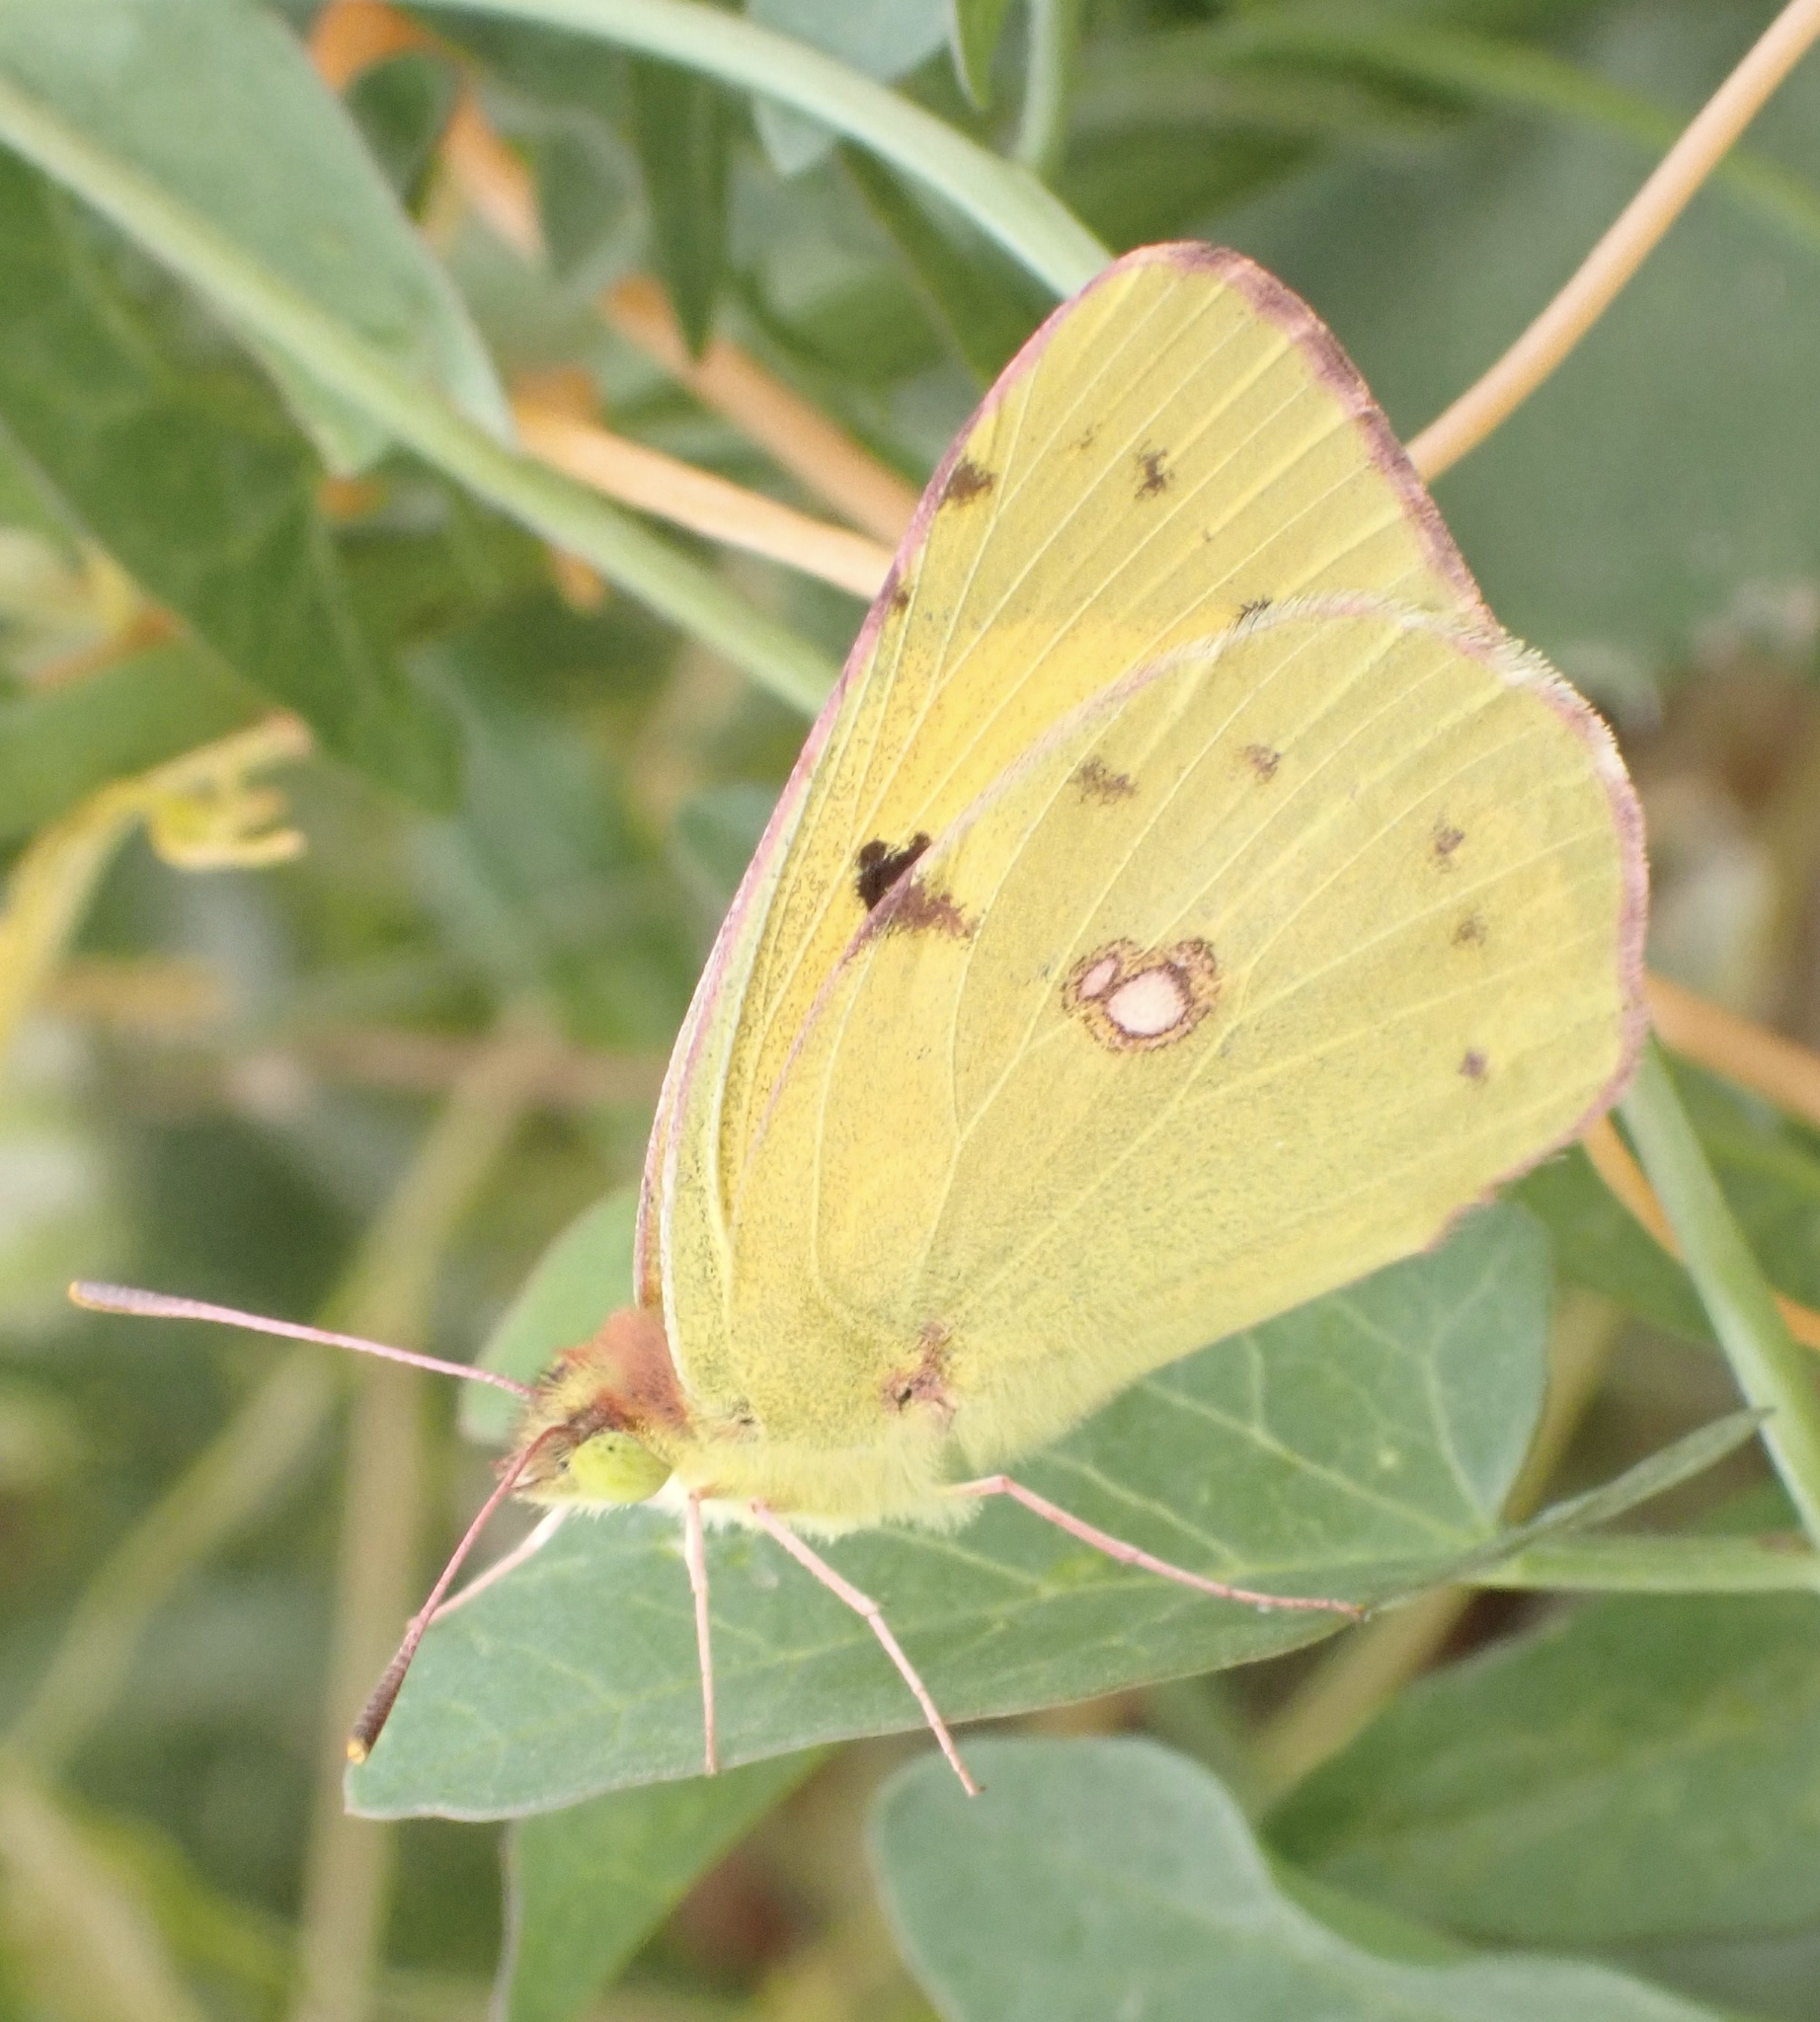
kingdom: Animalia
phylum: Arthropoda
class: Insecta
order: Lepidoptera
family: Pieridae
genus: Colias
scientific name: Colias croceus
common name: Clouded yellow
